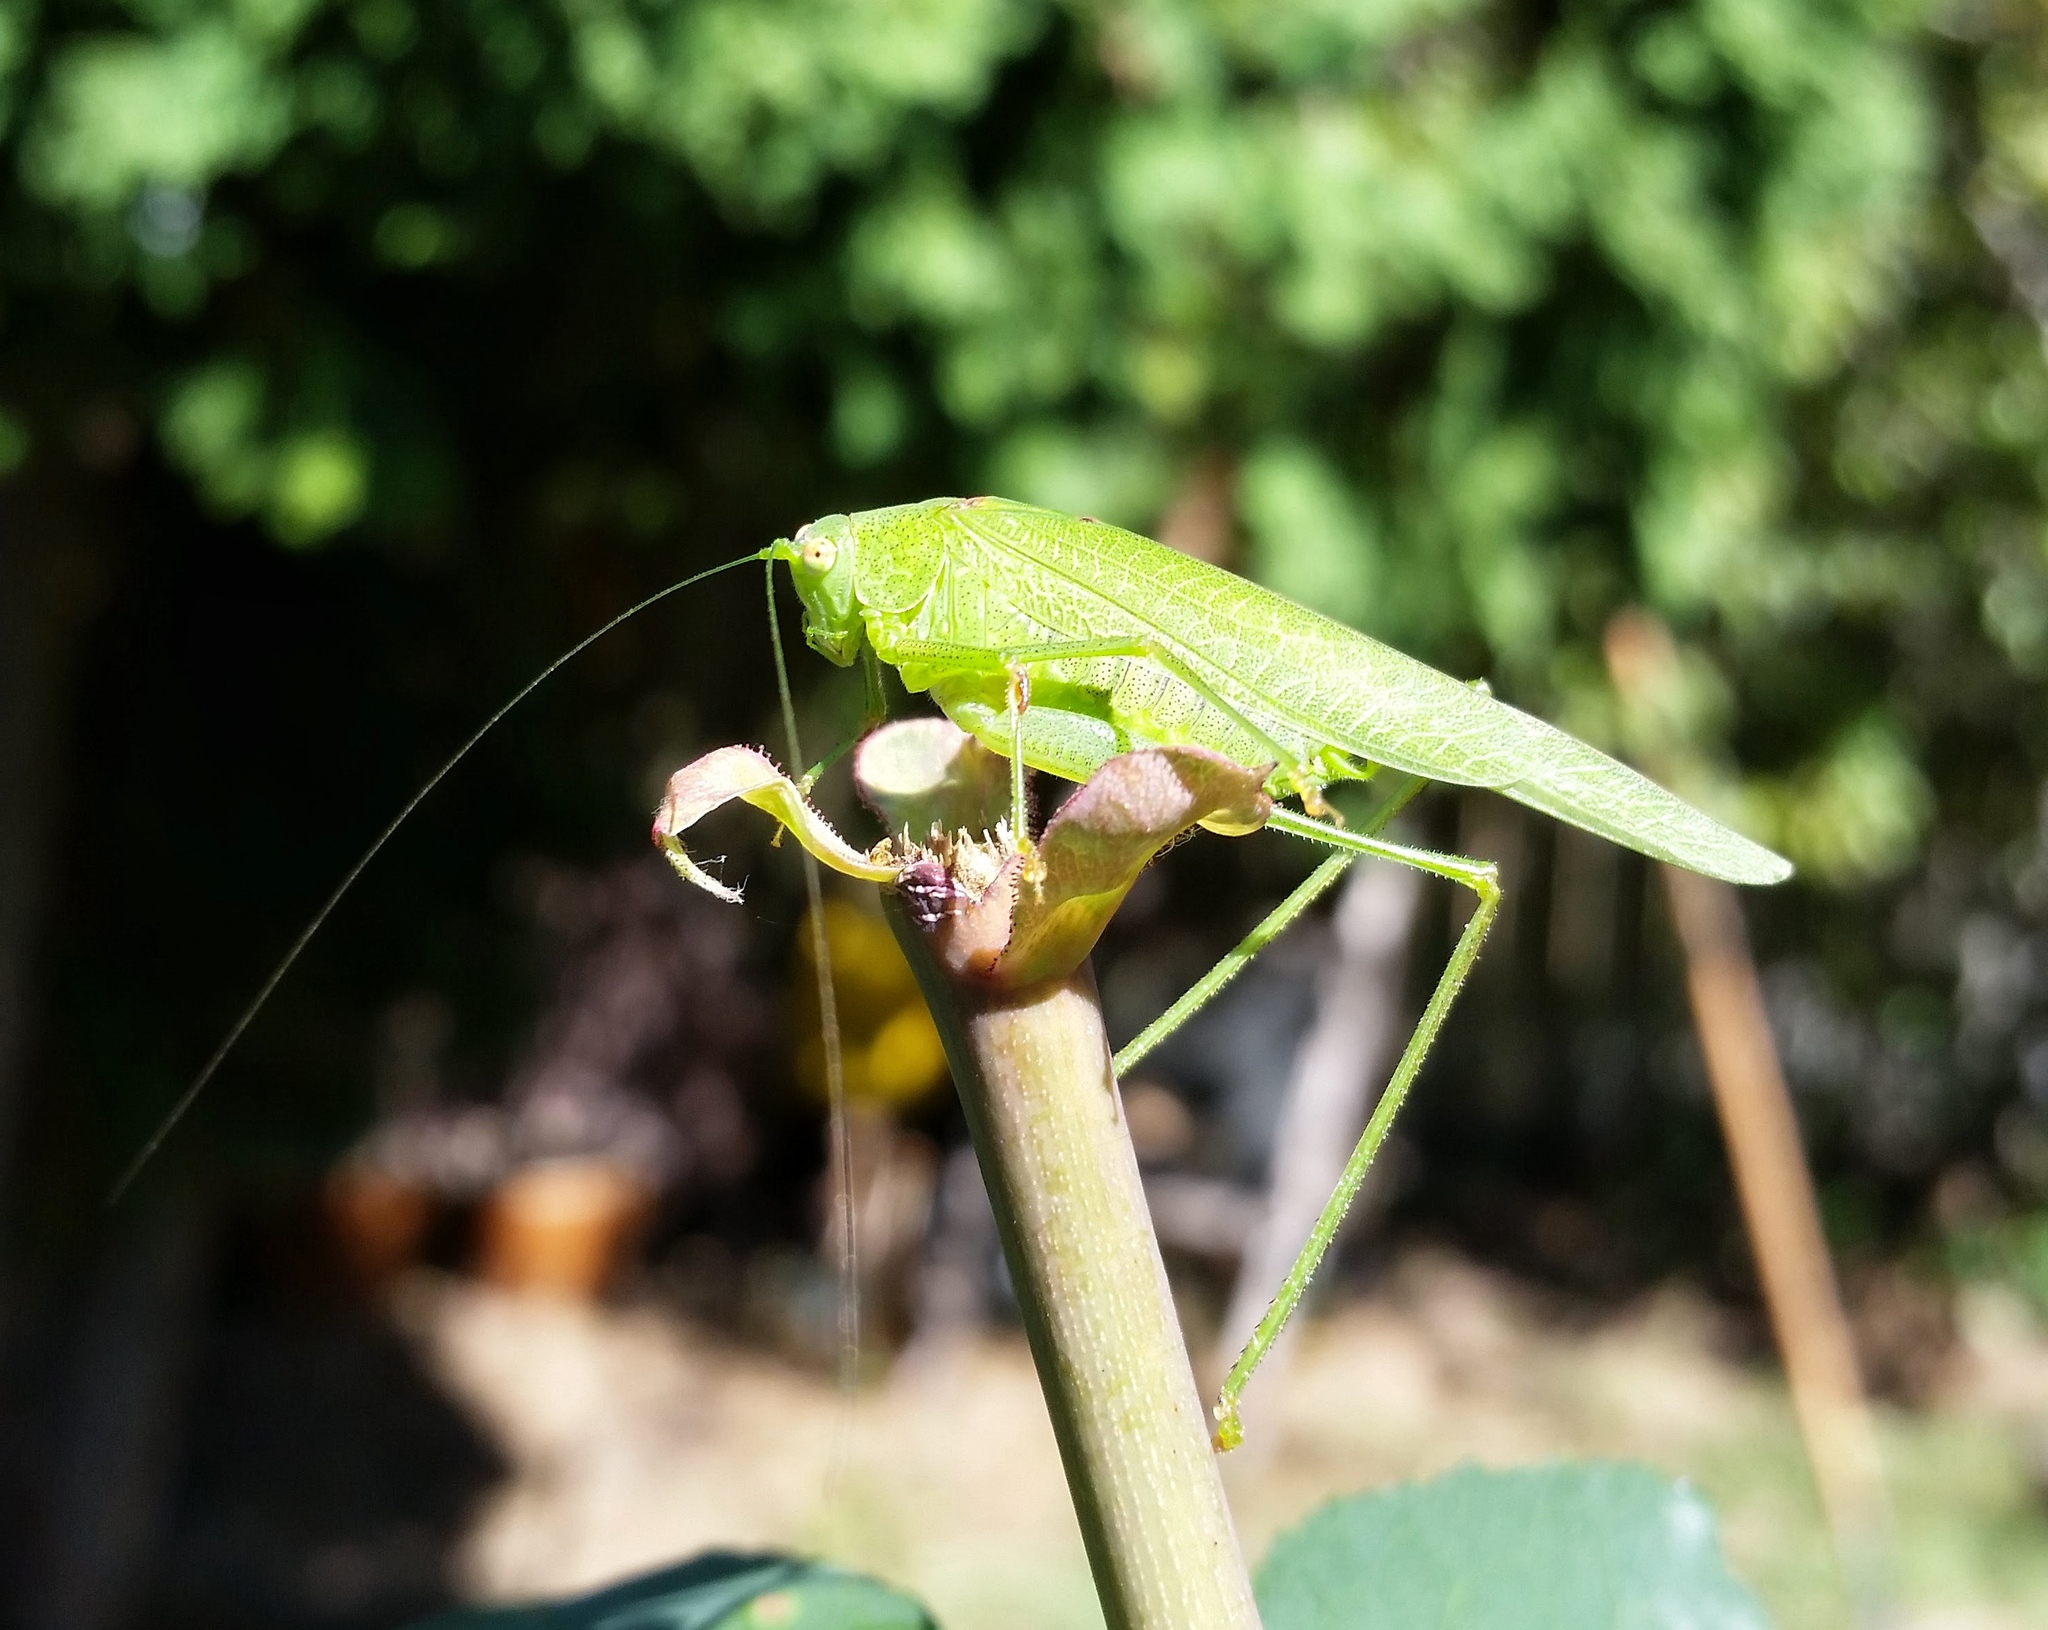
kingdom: Animalia
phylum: Arthropoda
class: Insecta
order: Orthoptera
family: Tettigoniidae
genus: Phaneroptera
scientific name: Phaneroptera nana
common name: Southern sickle bush-cricket
